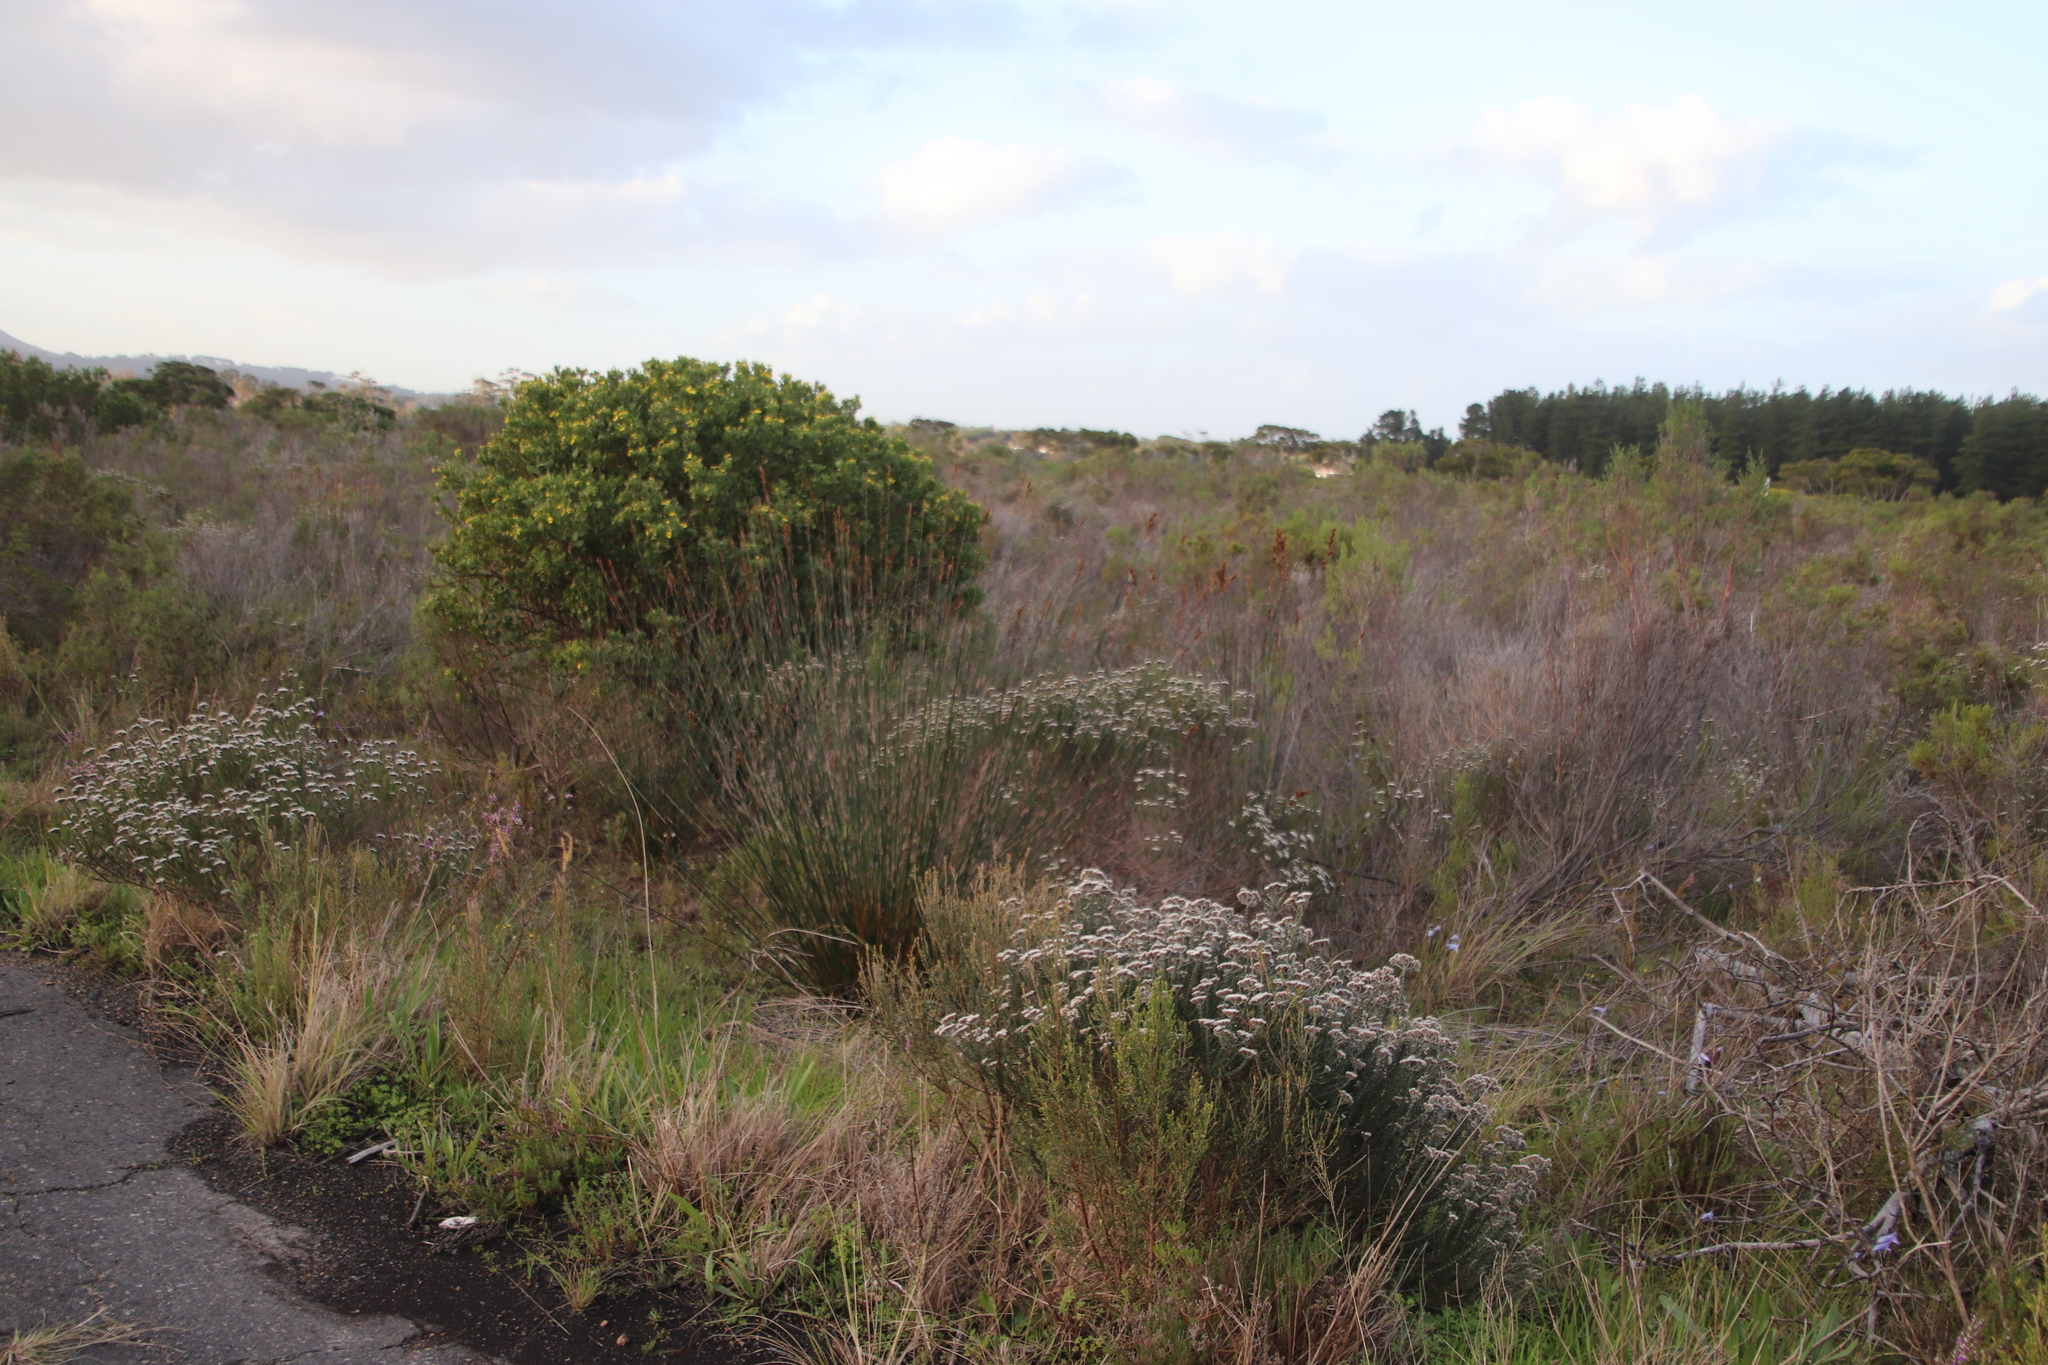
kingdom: Plantae
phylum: Tracheophyta
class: Liliopsida
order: Poales
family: Restionaceae
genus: Thamnochortus
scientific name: Thamnochortus insignis
